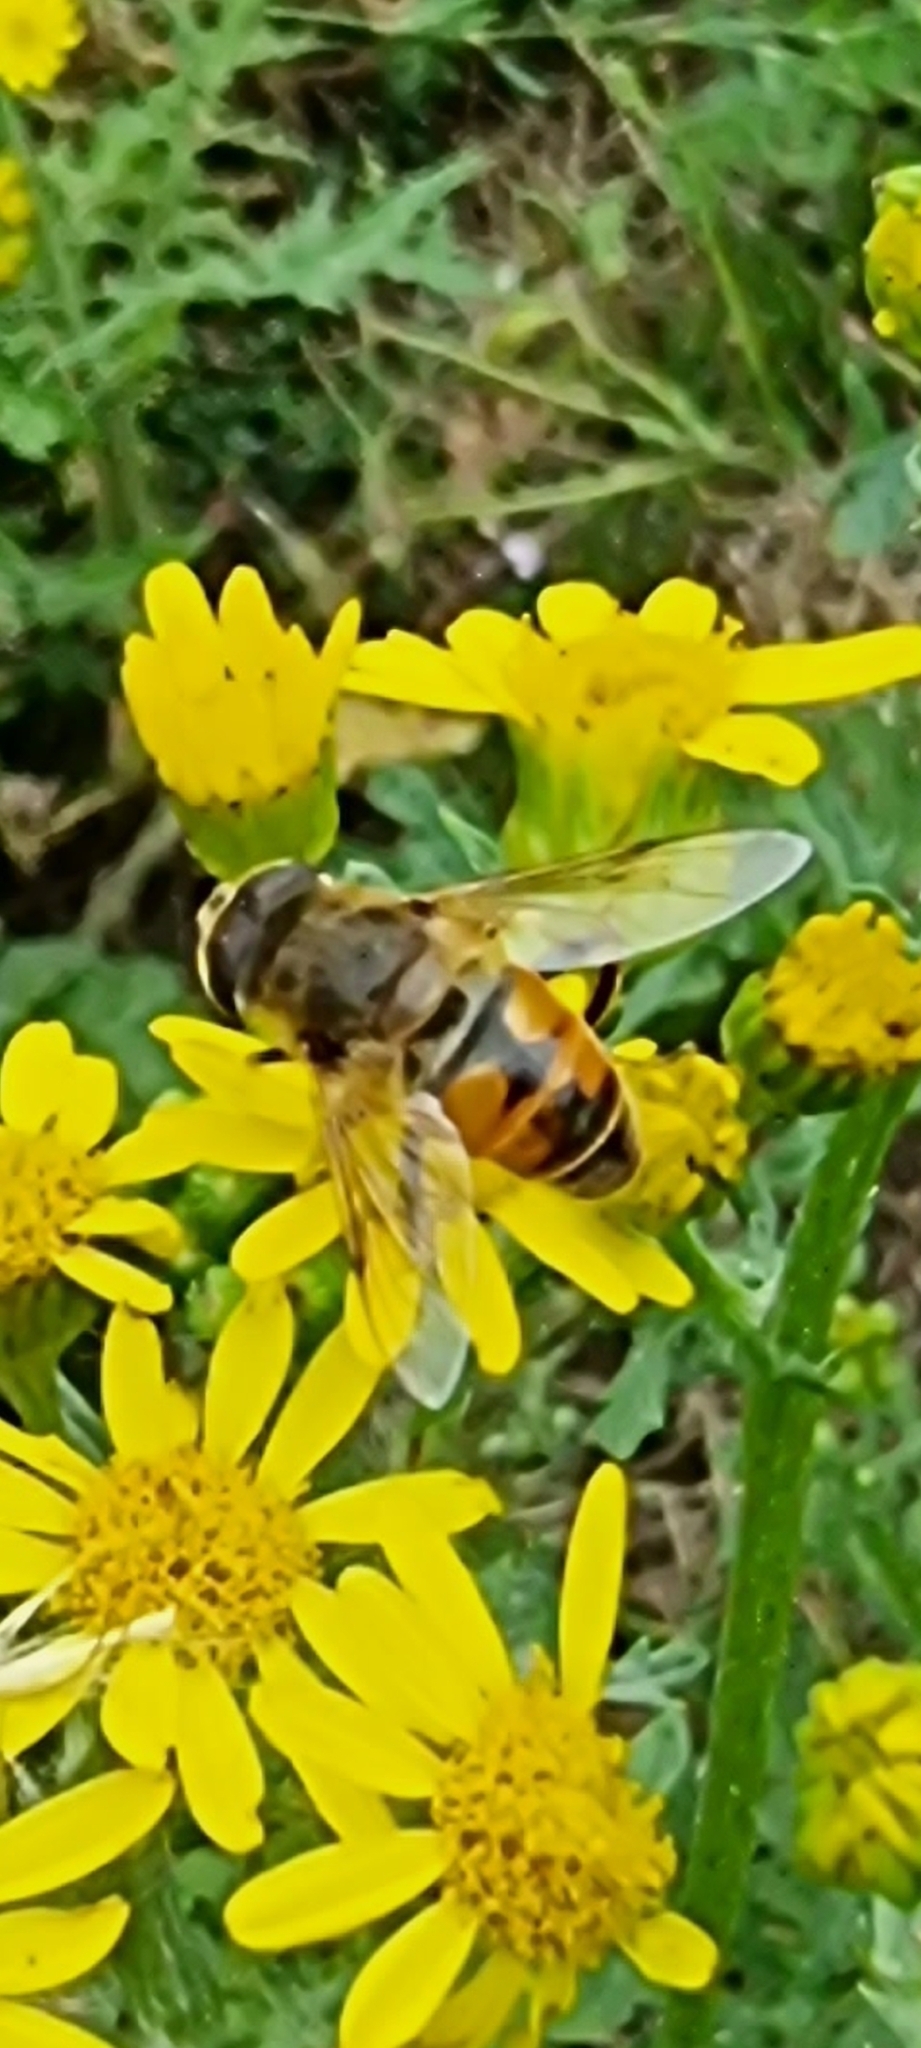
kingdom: Animalia
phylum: Arthropoda
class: Insecta
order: Diptera
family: Syrphidae
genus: Eristalis
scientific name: Eristalis tenax
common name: Drone fly
